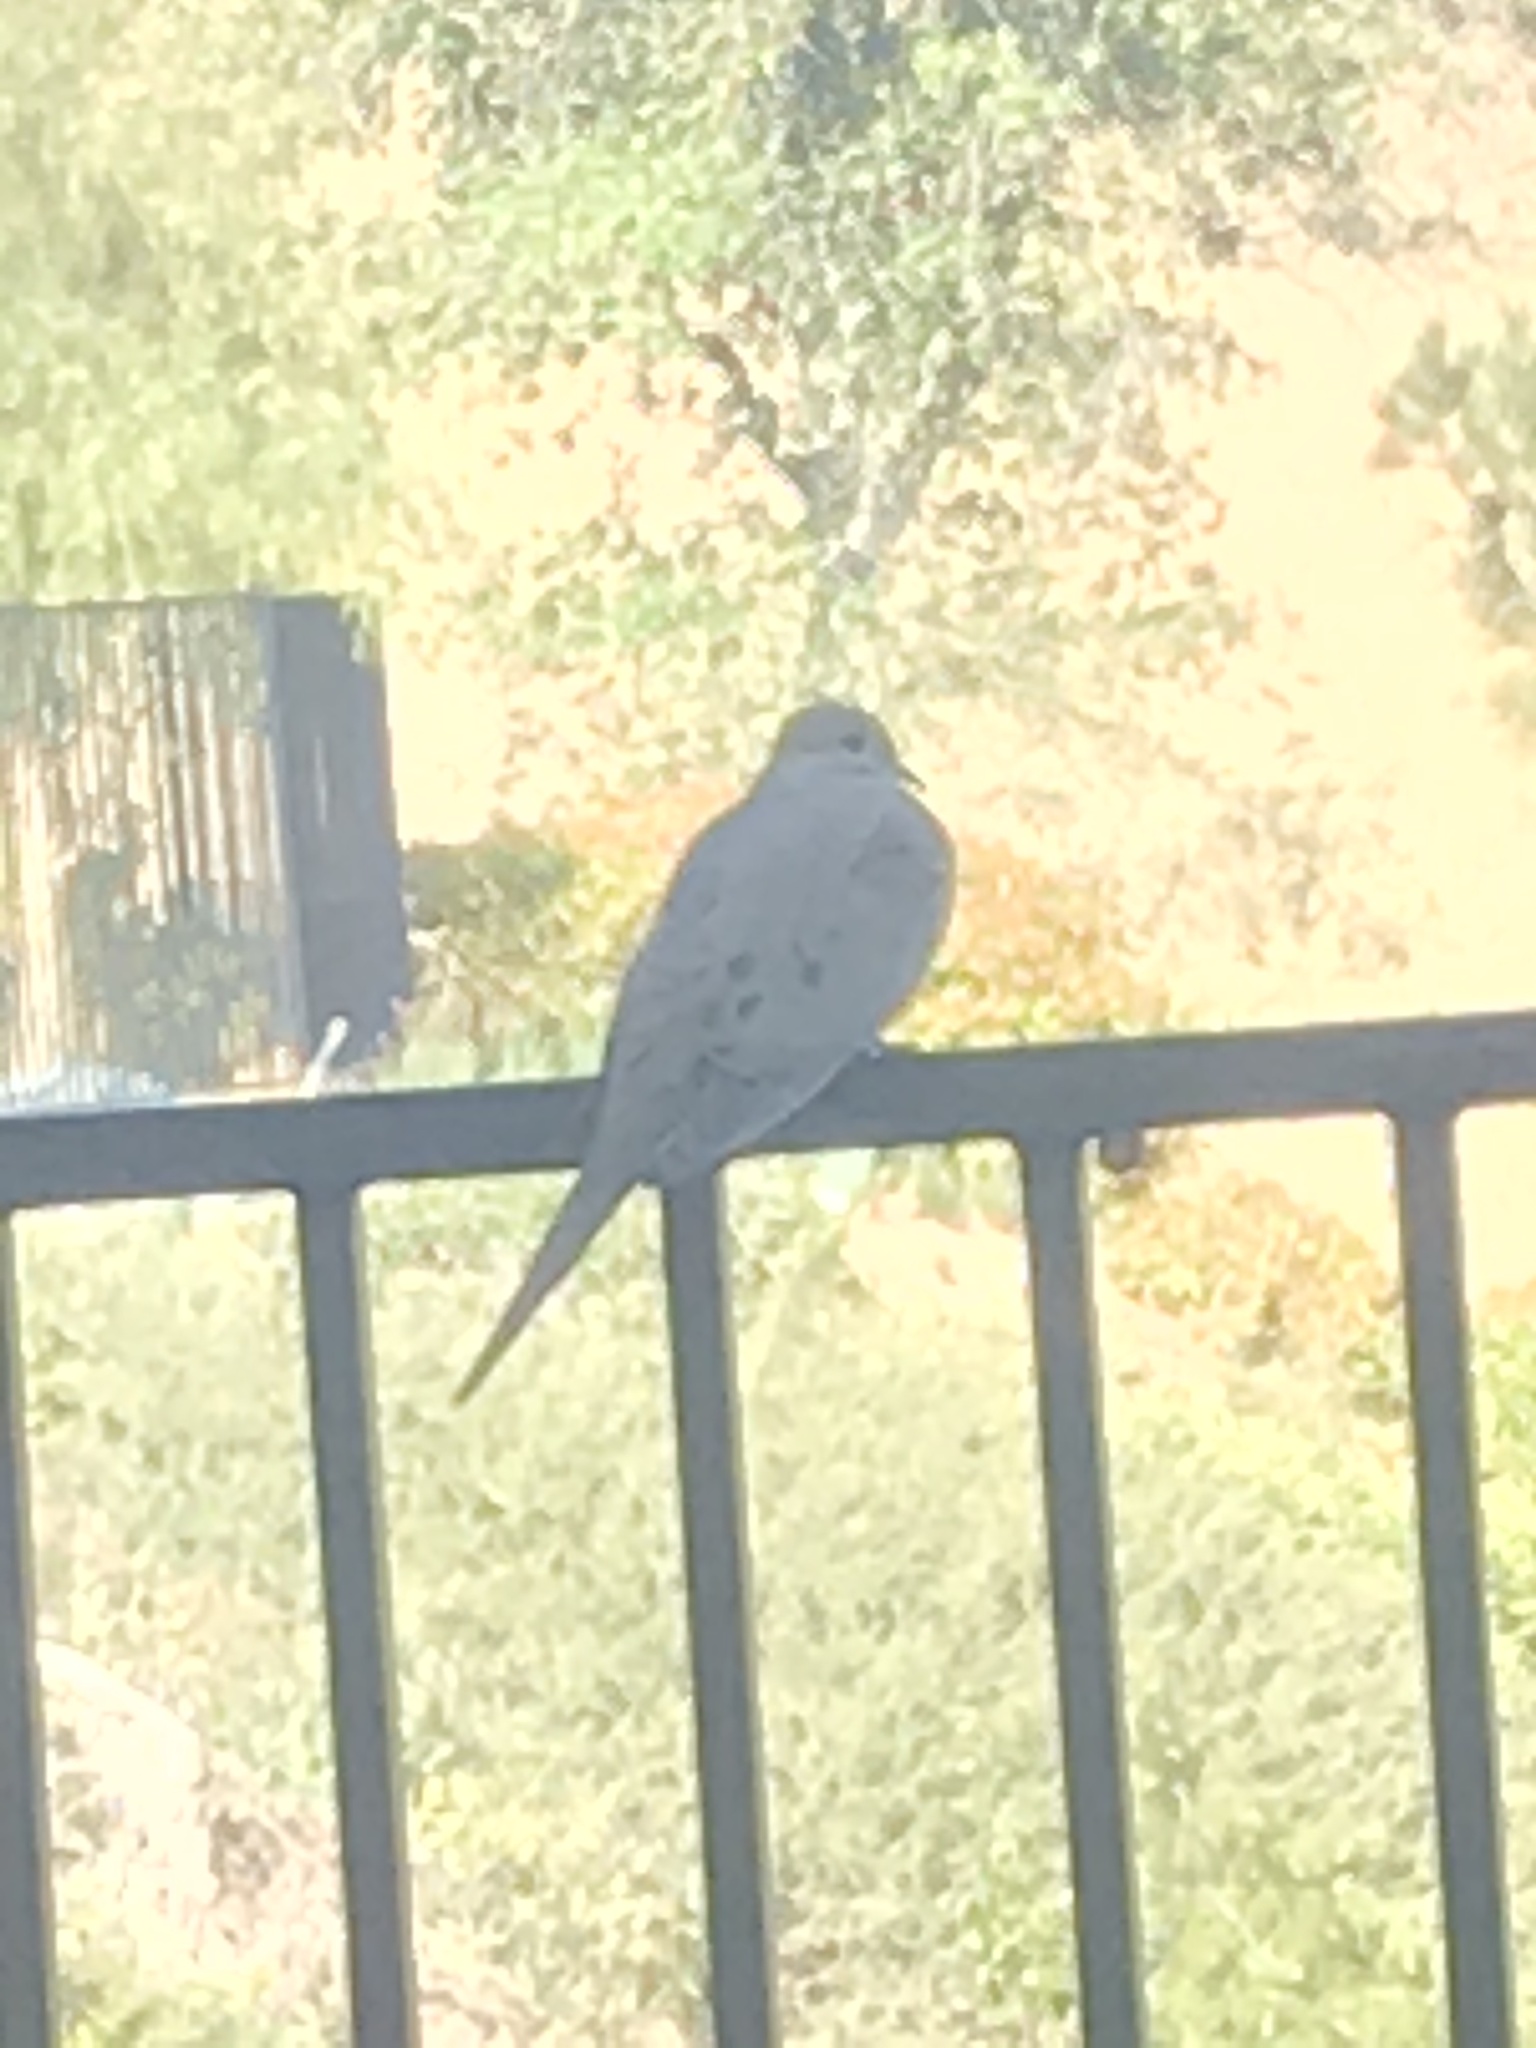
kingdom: Animalia
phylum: Chordata
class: Aves
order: Columbiformes
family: Columbidae
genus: Zenaida
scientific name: Zenaida macroura
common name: Mourning dove
